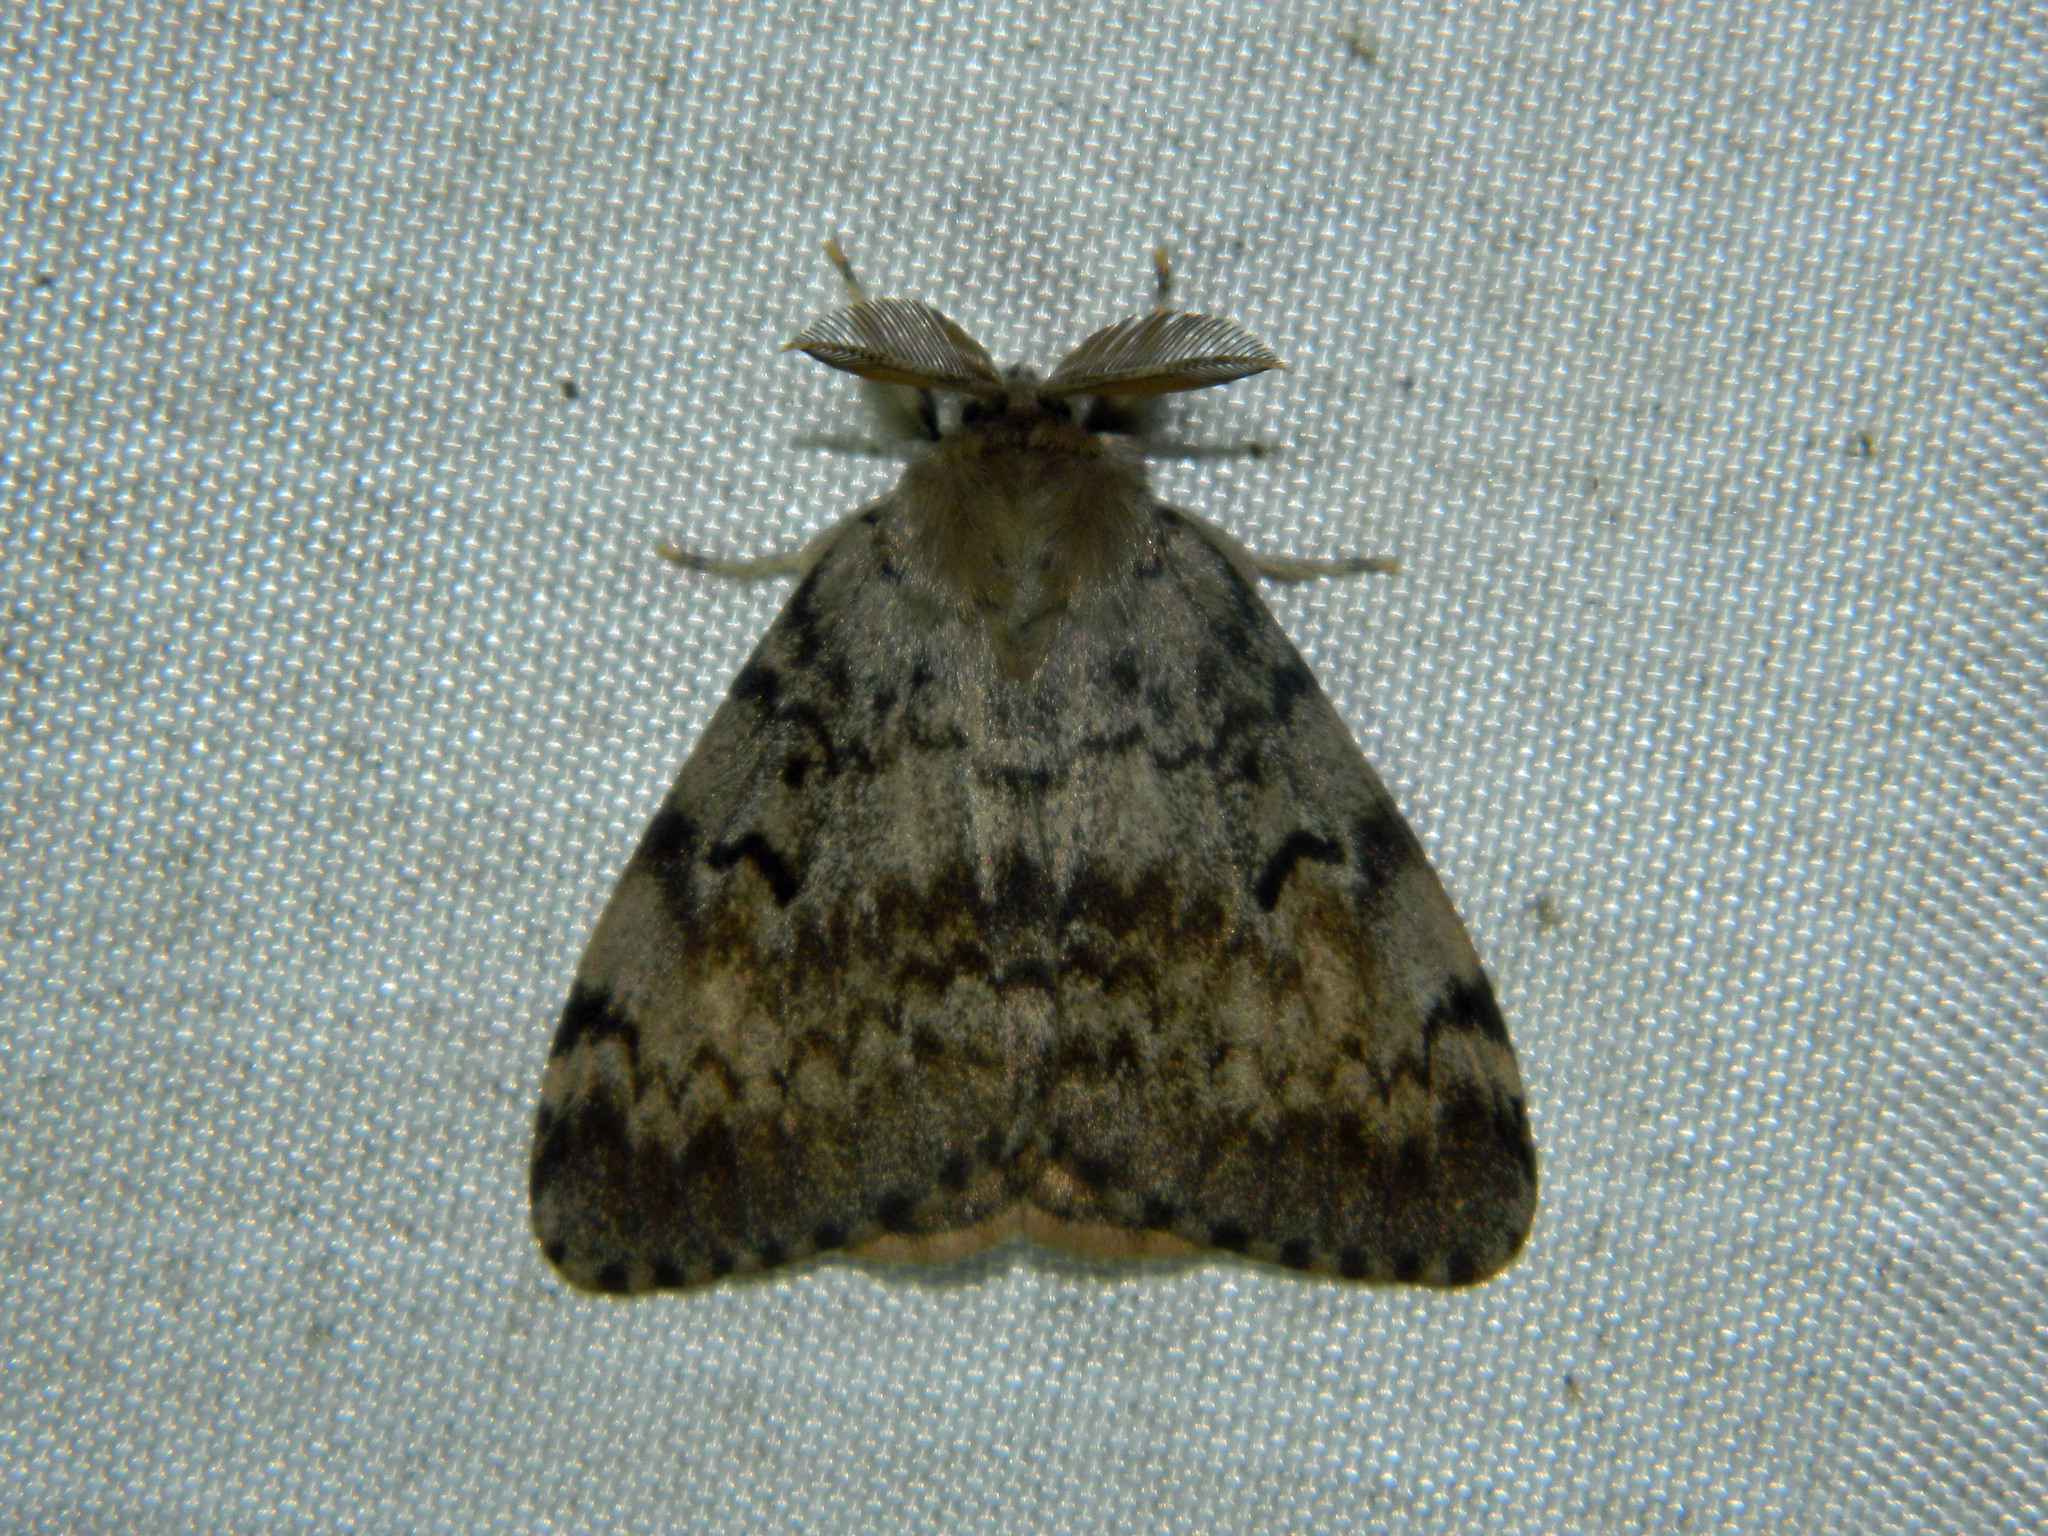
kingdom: Animalia
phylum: Arthropoda
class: Insecta
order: Lepidoptera
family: Erebidae
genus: Lymantria
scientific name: Lymantria dispar
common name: Gypsy moth
